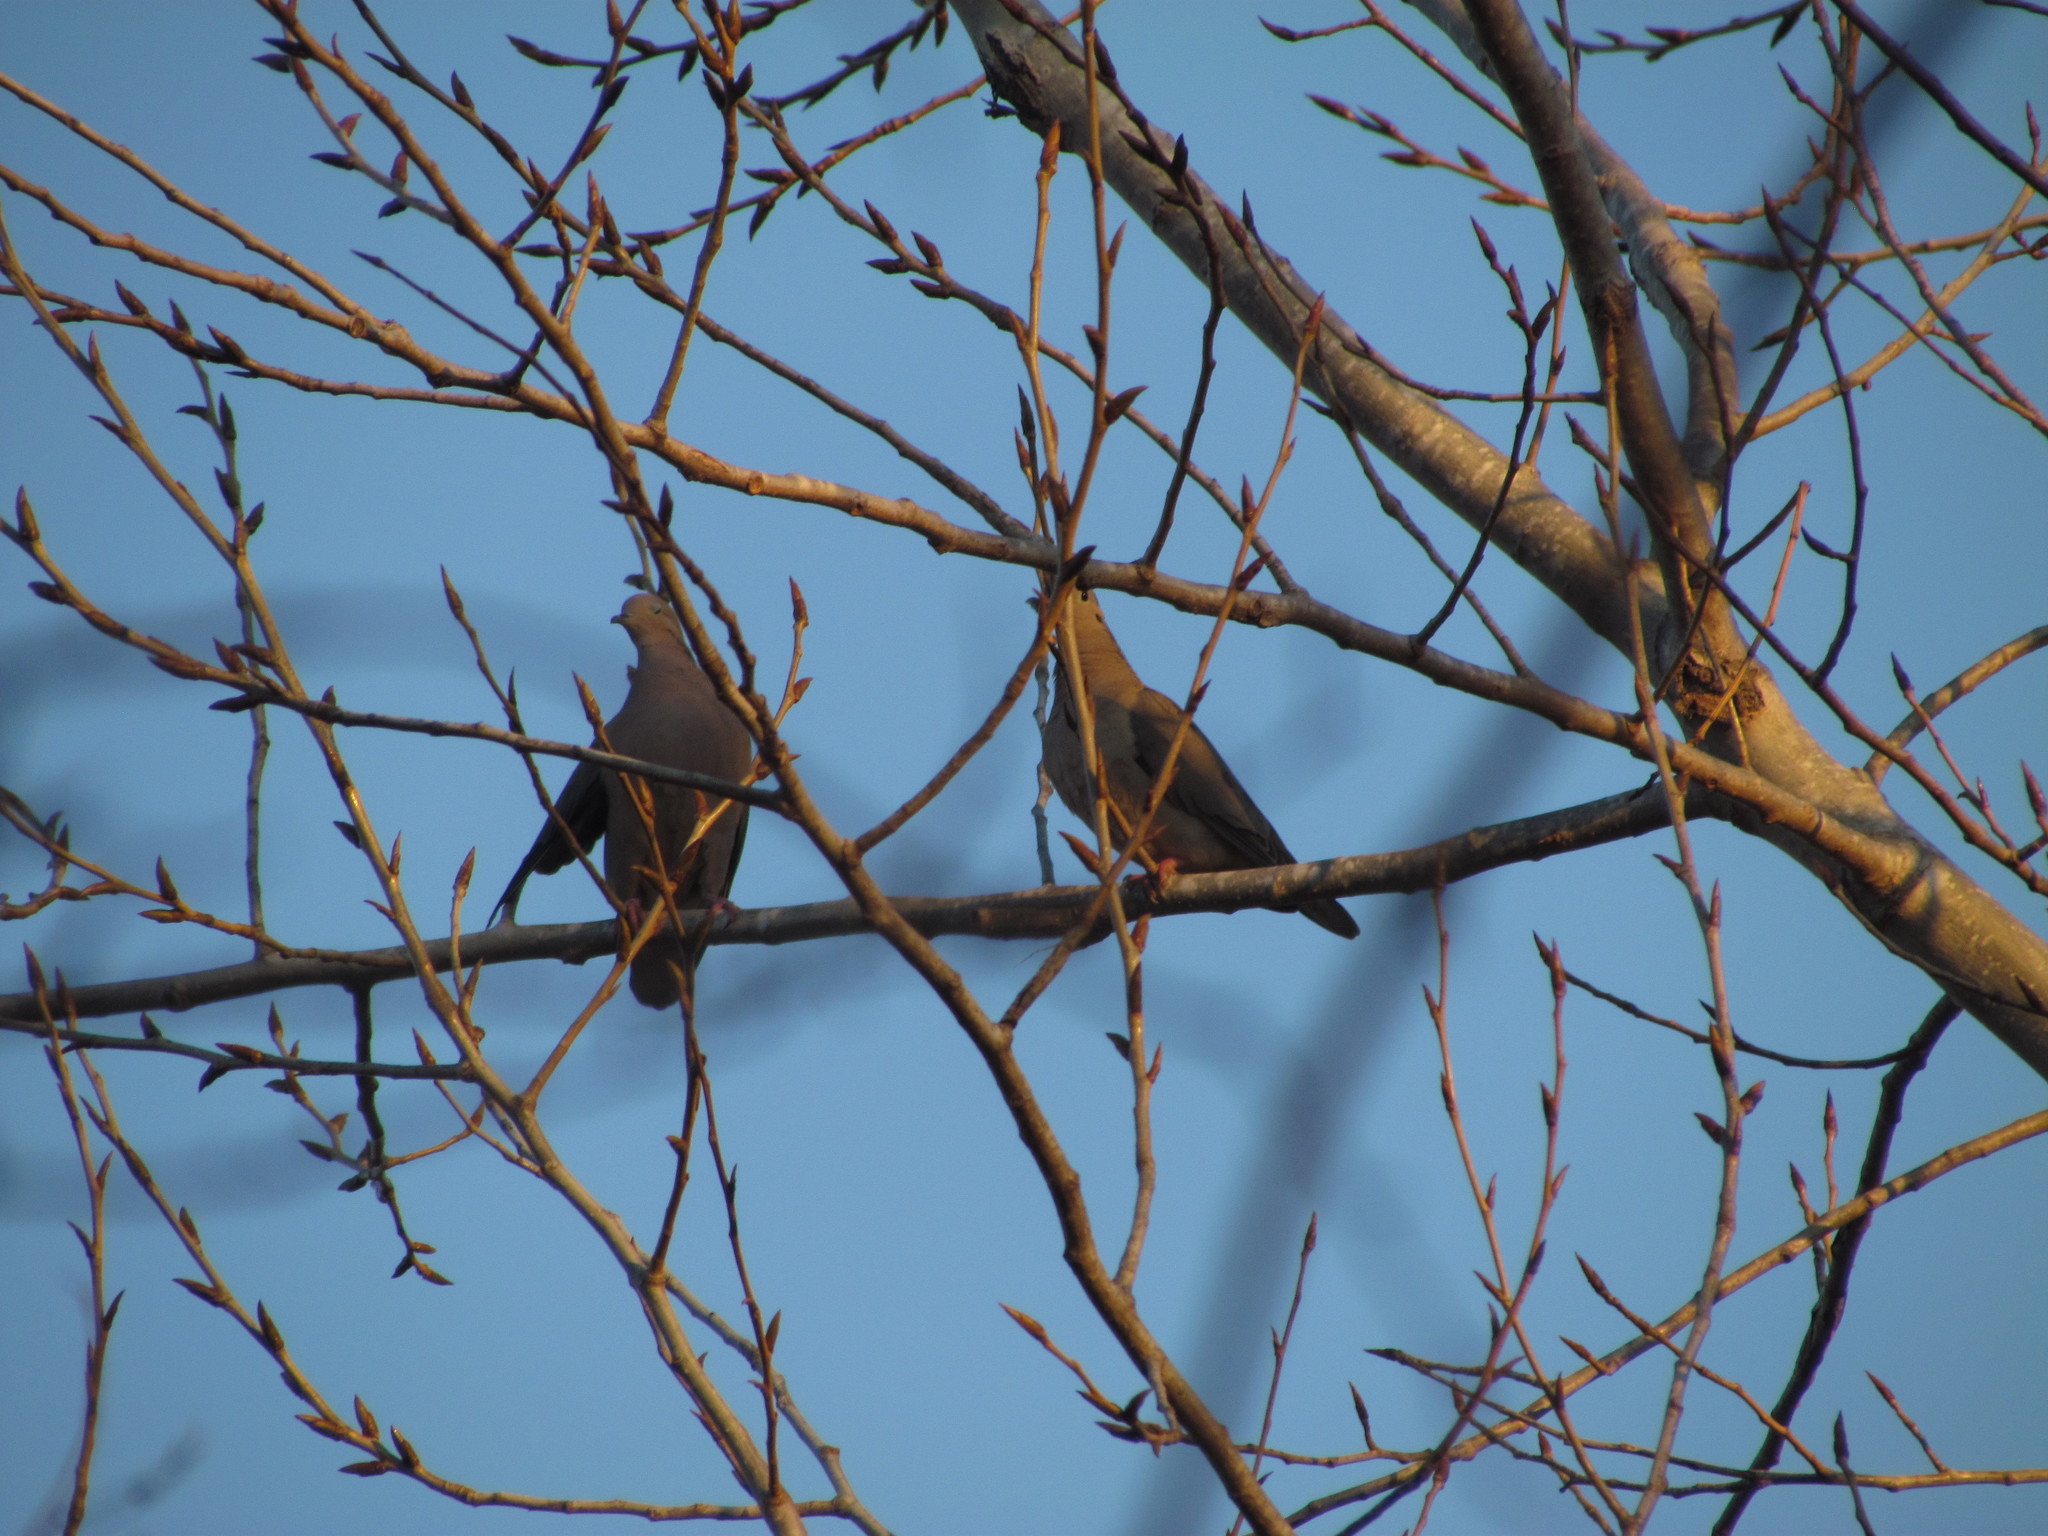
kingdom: Animalia
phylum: Chordata
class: Aves
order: Columbiformes
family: Columbidae
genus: Zenaida
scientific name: Zenaida auriculata
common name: Eared dove
